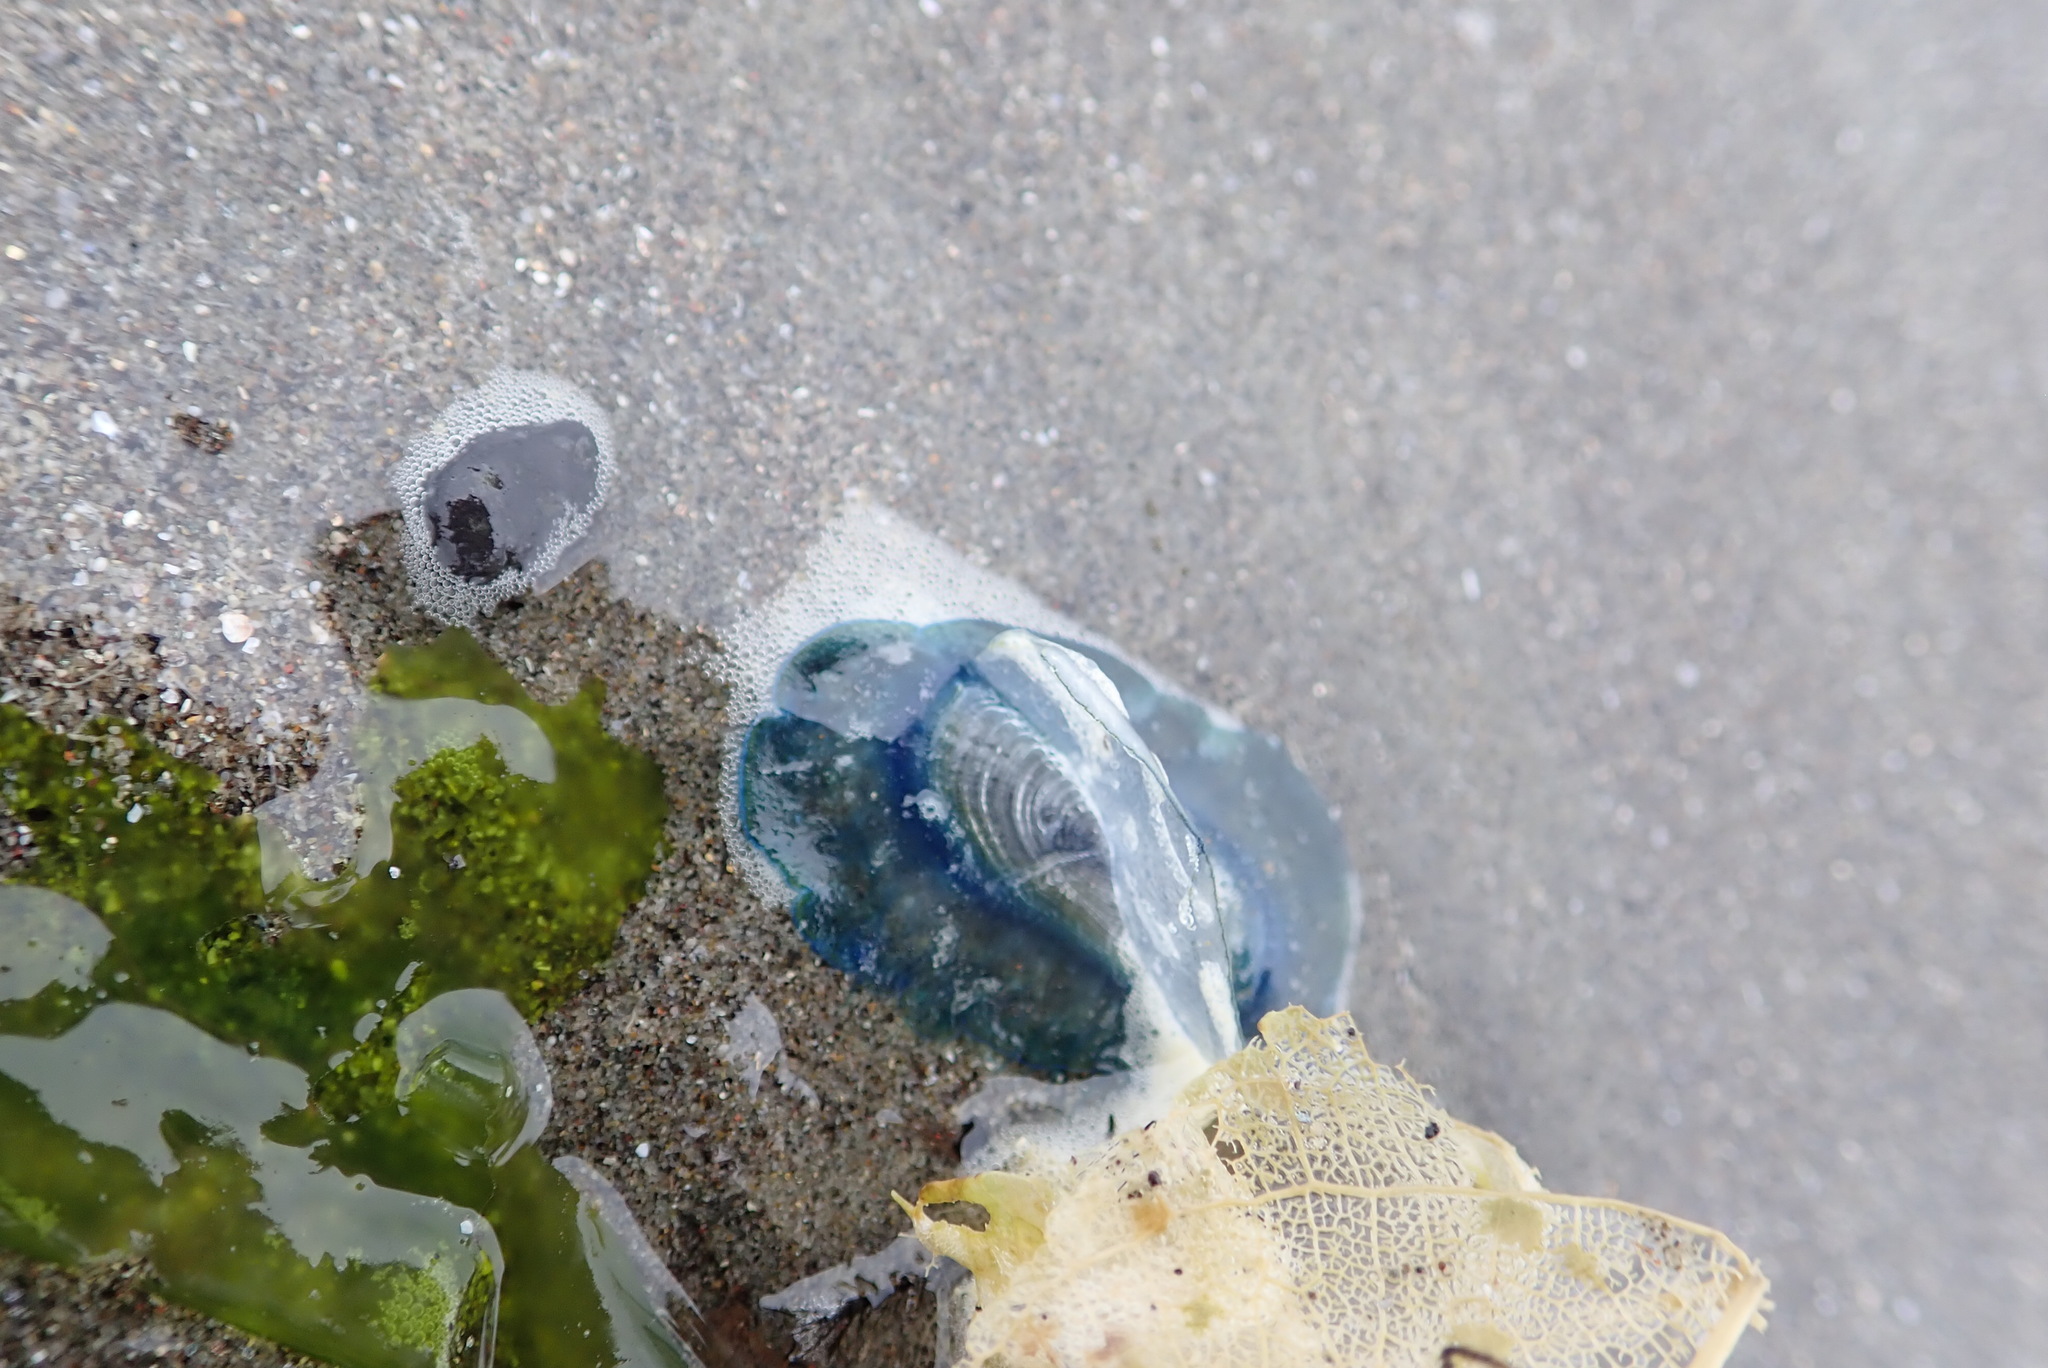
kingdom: Animalia
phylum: Cnidaria
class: Hydrozoa
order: Anthoathecata
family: Porpitidae
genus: Velella
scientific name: Velella velella
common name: By-the-wind-sailor
